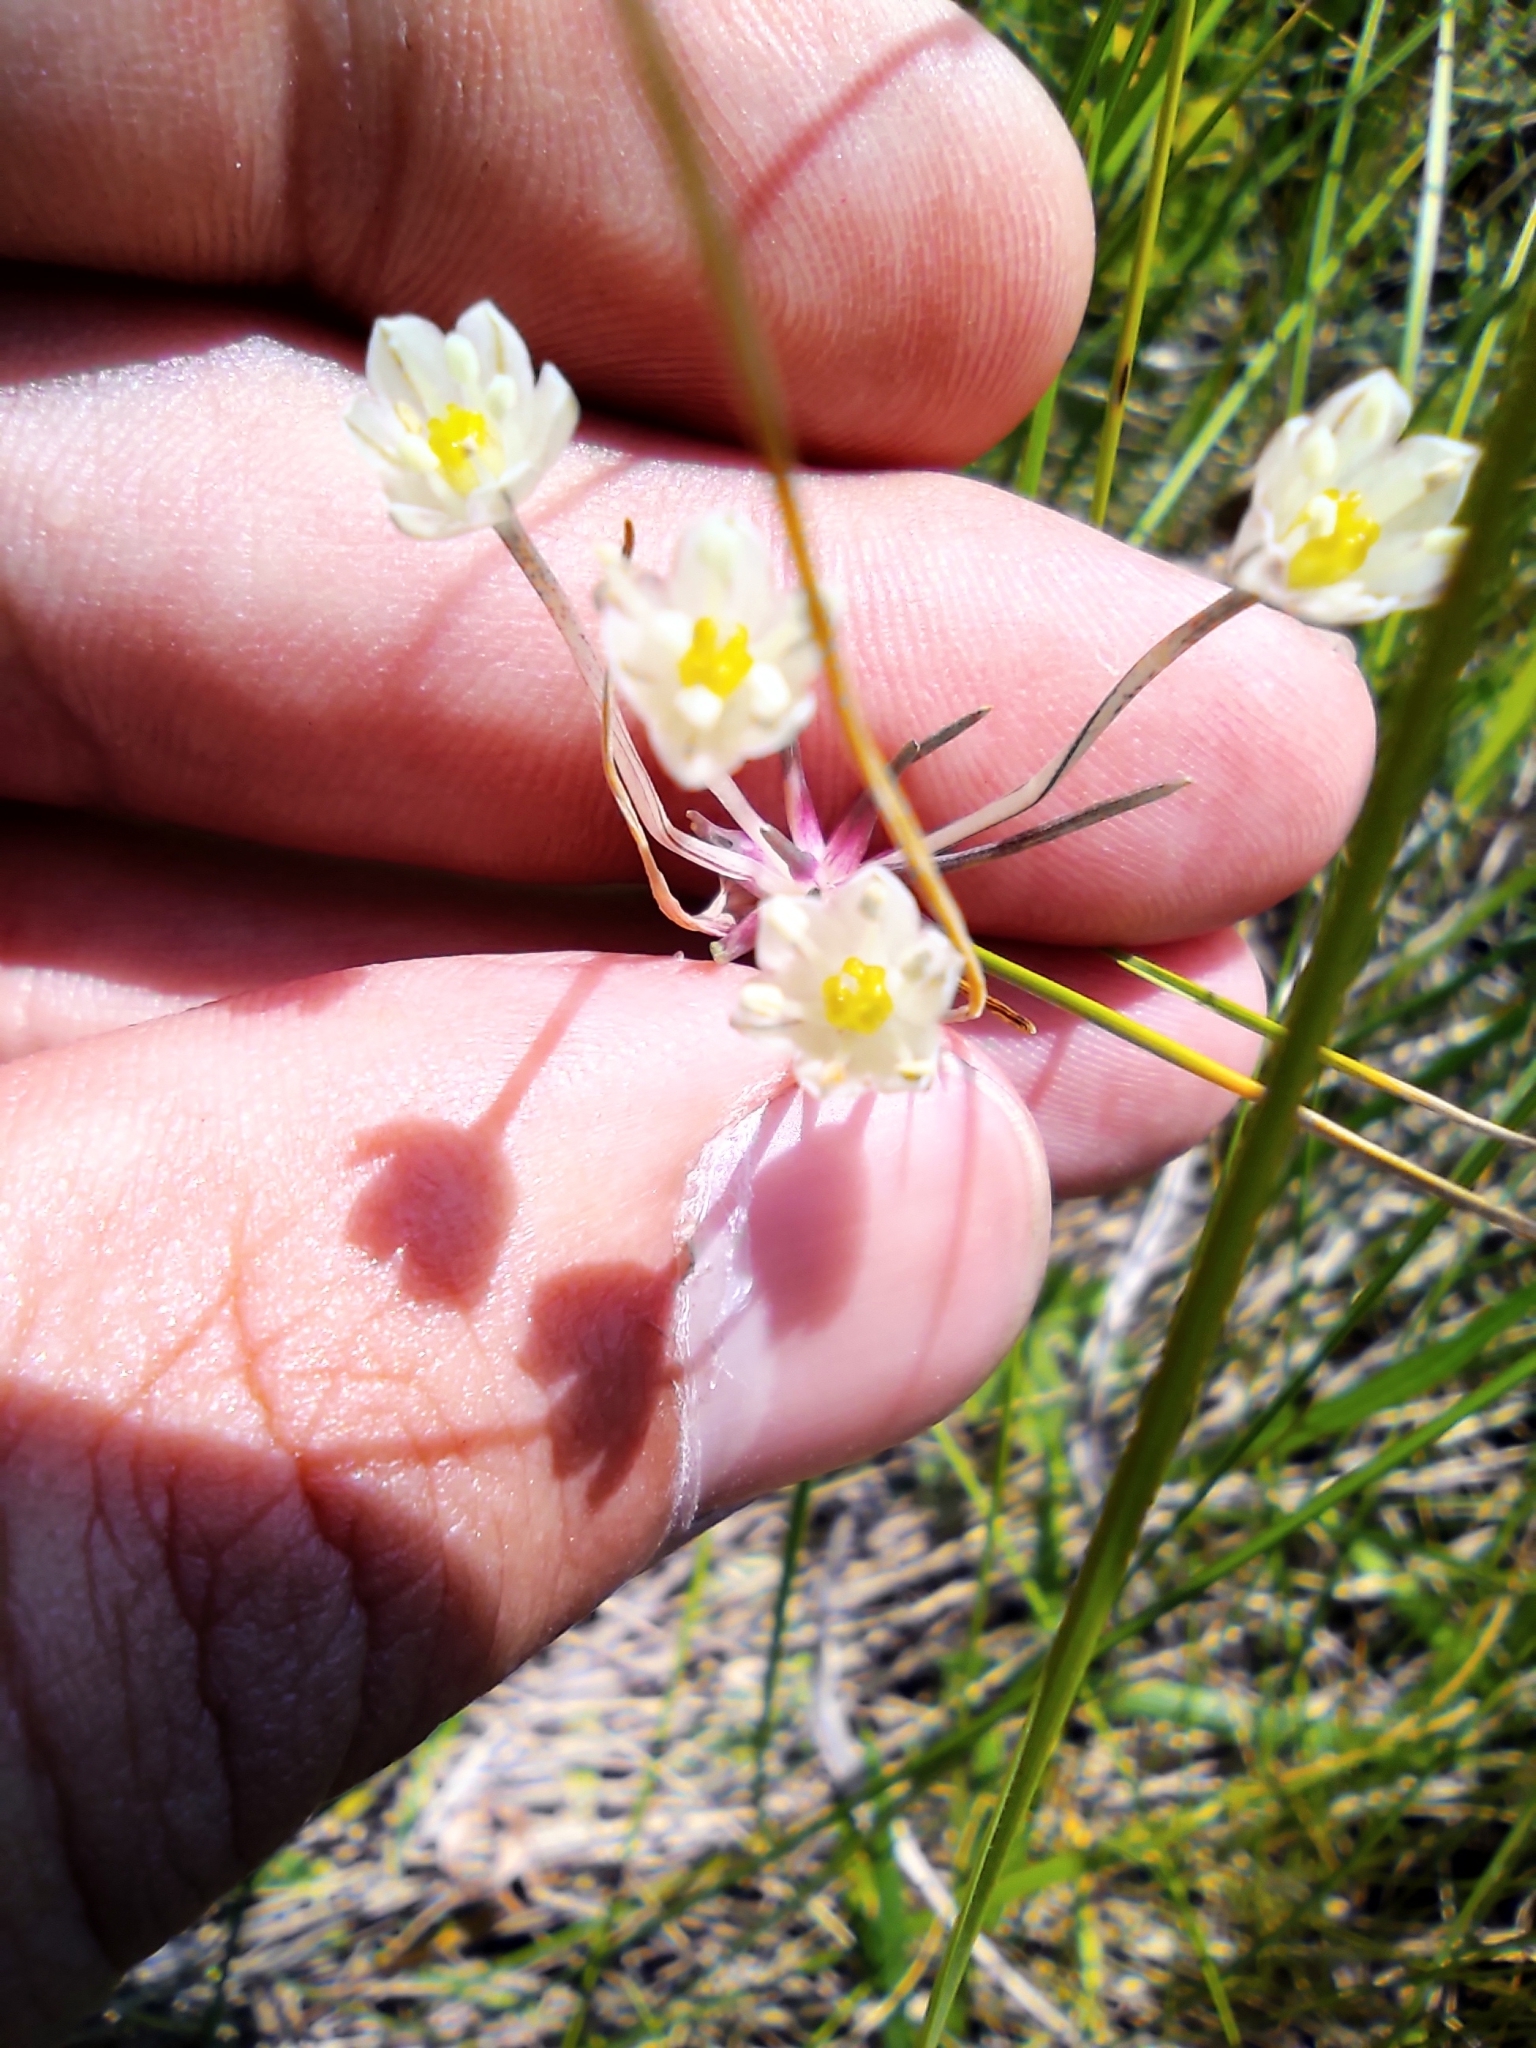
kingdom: Plantae
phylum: Tracheophyta
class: Liliopsida
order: Asparagales
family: Amaryllidaceae
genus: Allium
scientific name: Allium oleraceum
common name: Field garlic
